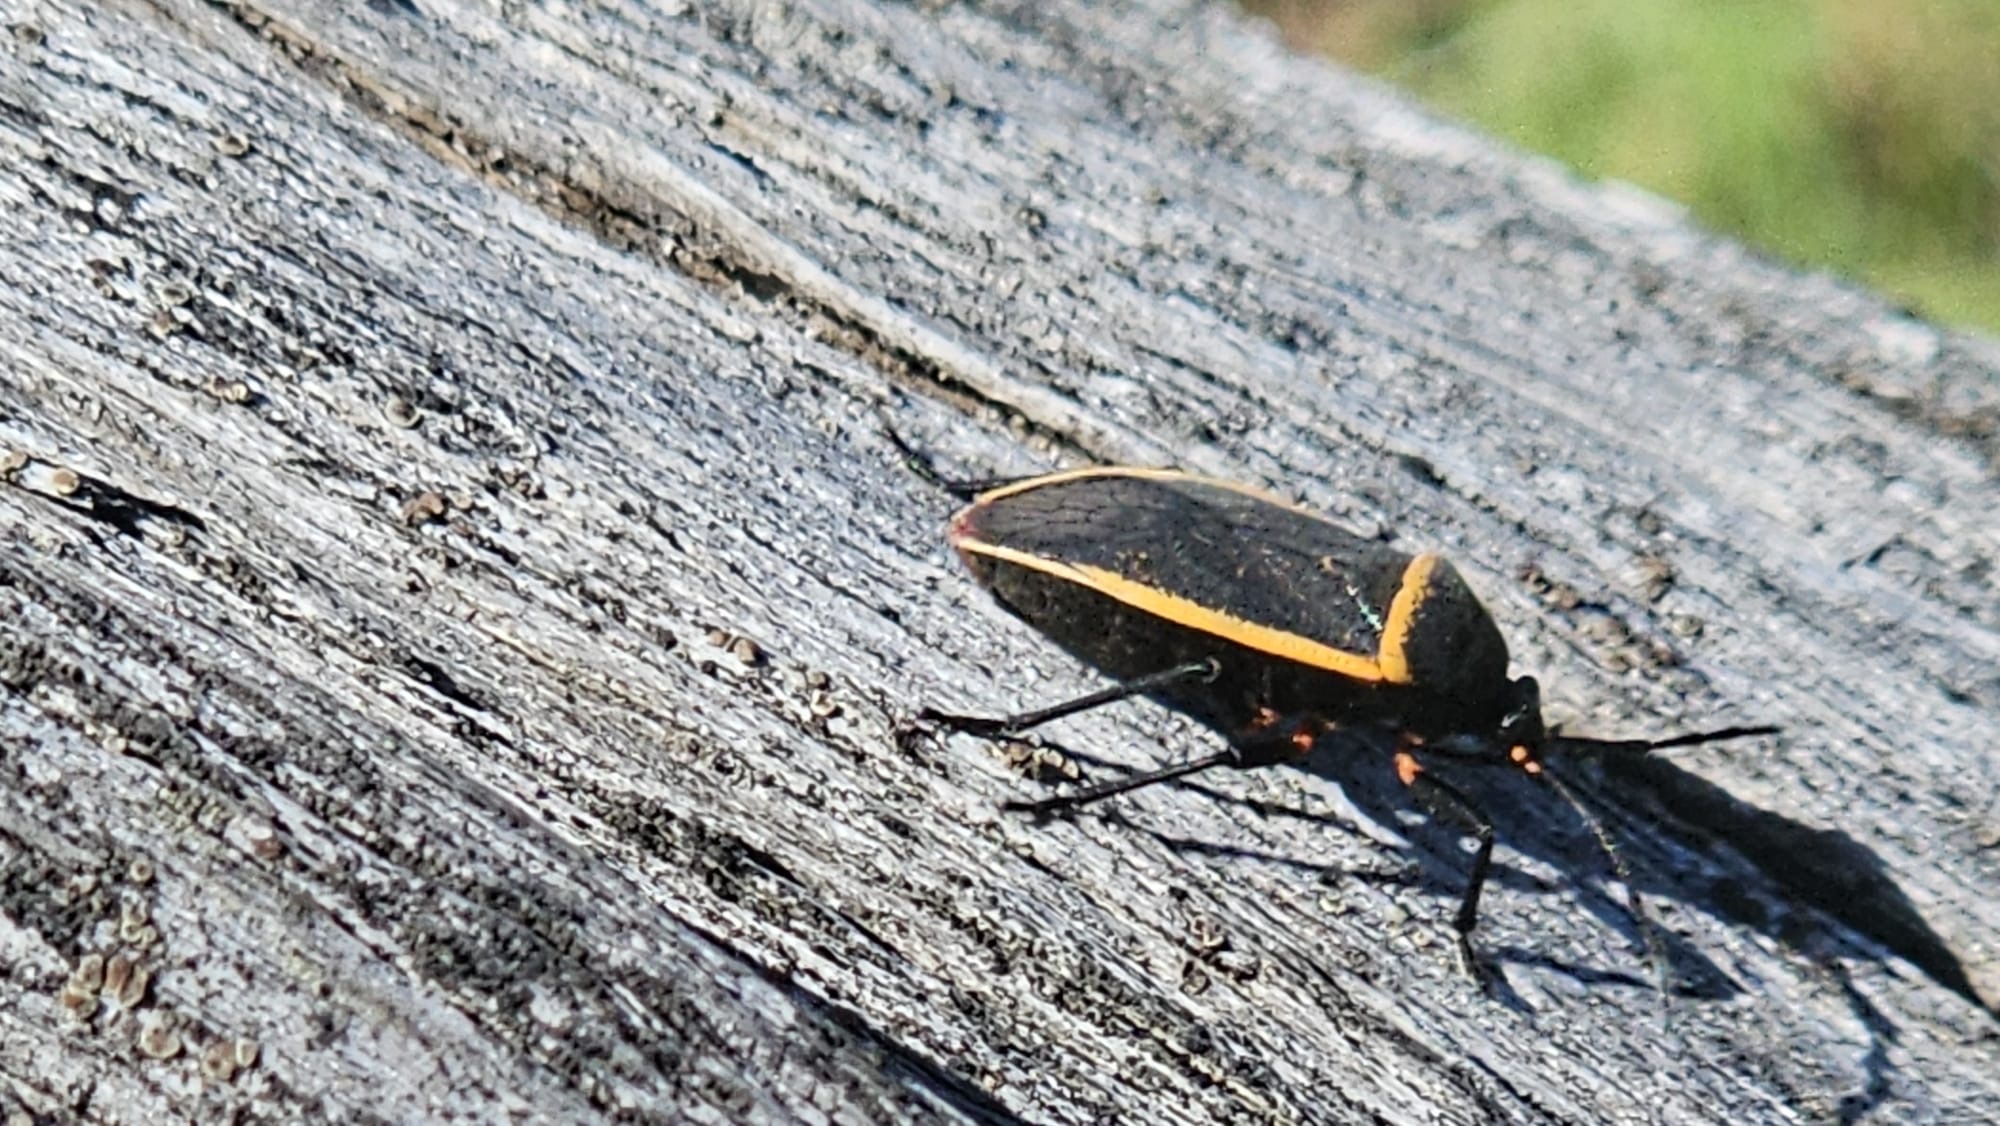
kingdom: Animalia
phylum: Arthropoda
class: Insecta
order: Hemiptera
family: Largidae
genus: Largus
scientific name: Largus californicus
